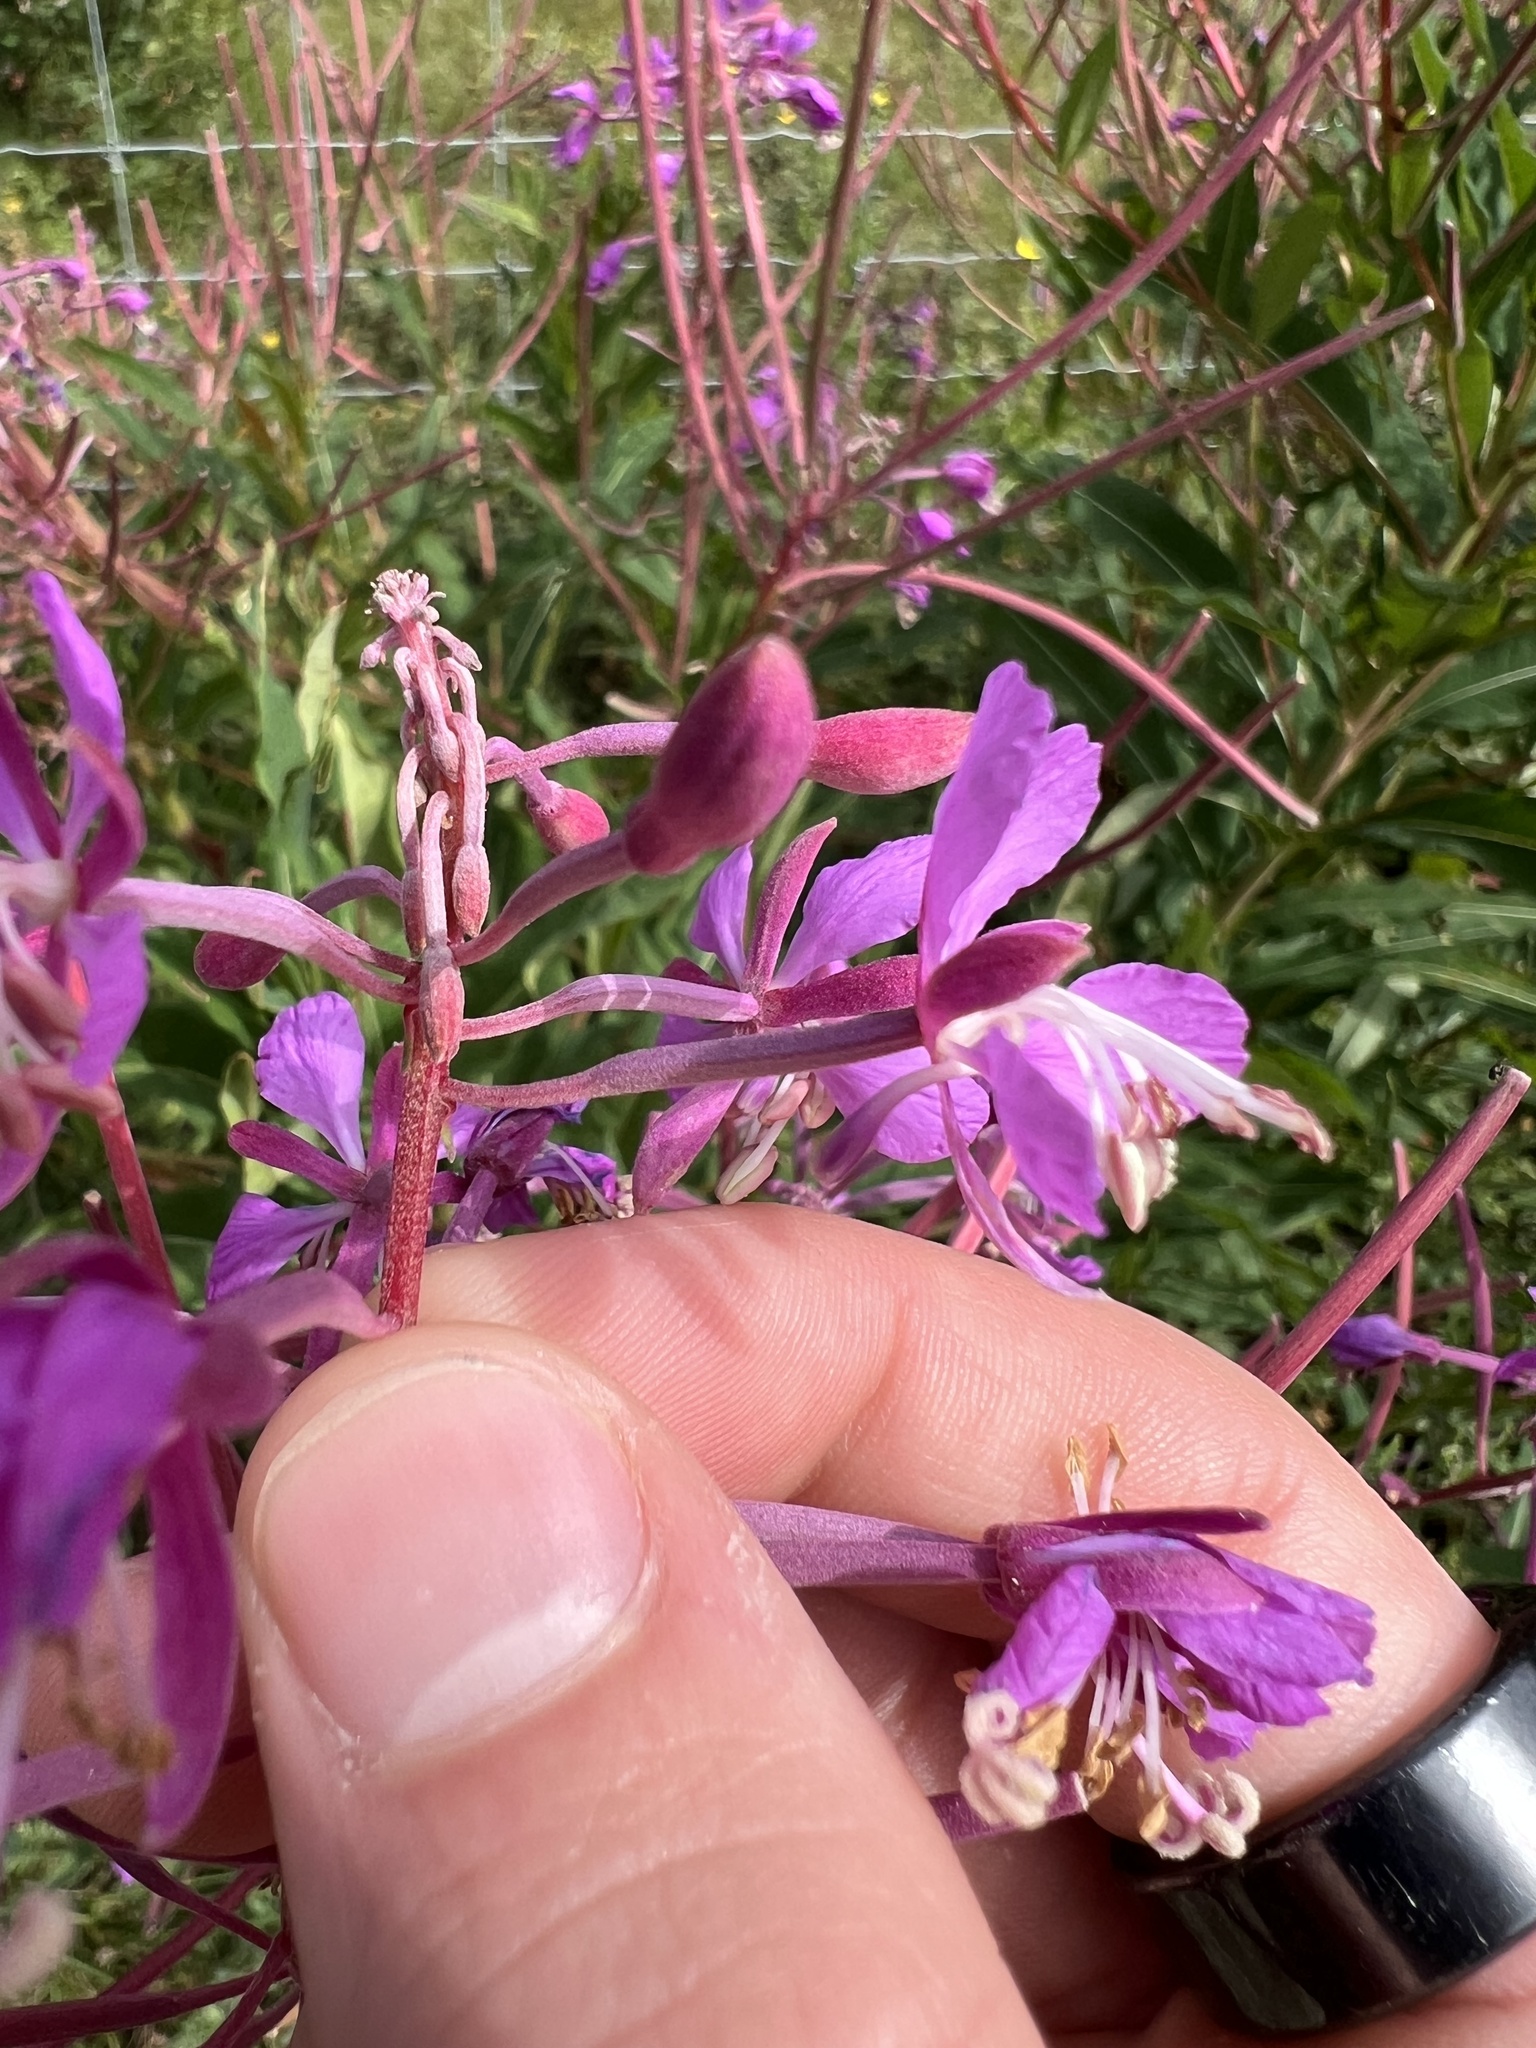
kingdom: Plantae
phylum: Tracheophyta
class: Magnoliopsida
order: Myrtales
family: Onagraceae
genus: Chamaenerion
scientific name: Chamaenerion angustifolium
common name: Fireweed
